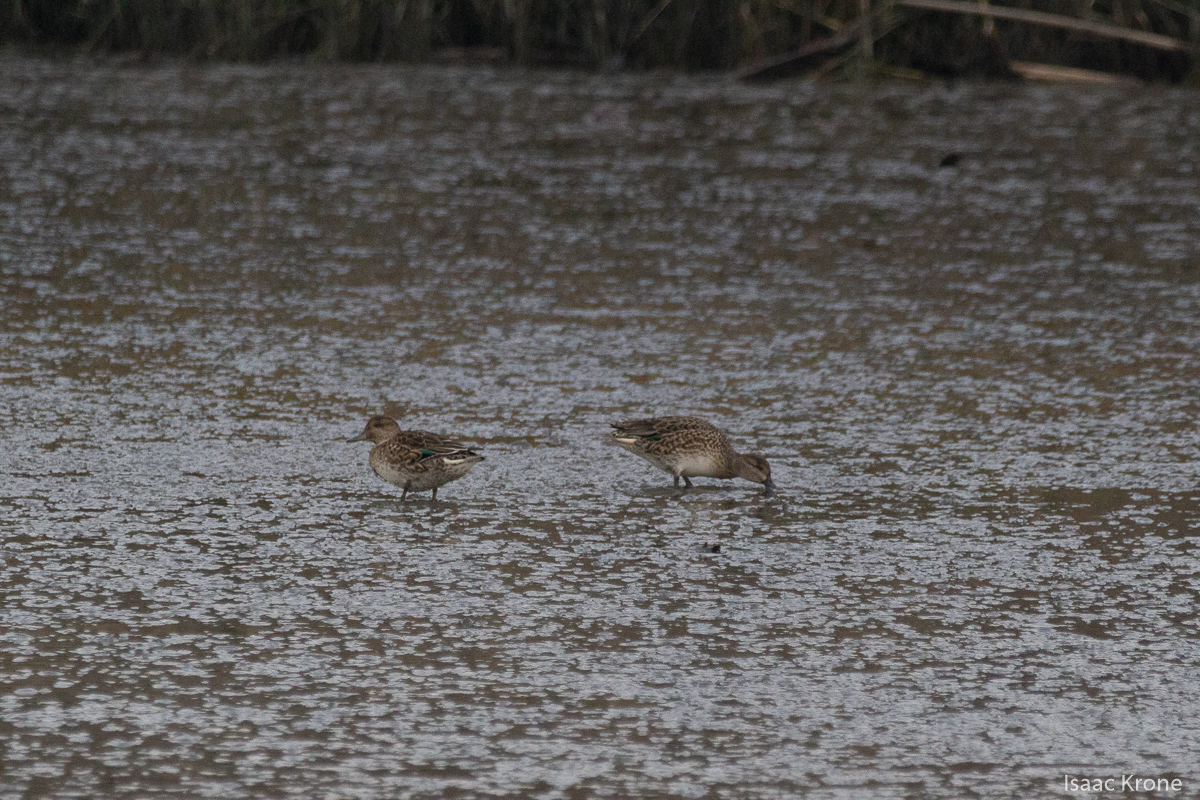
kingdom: Animalia
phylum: Chordata
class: Aves
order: Anseriformes
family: Anatidae
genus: Anas
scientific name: Anas crecca
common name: Eurasian teal
